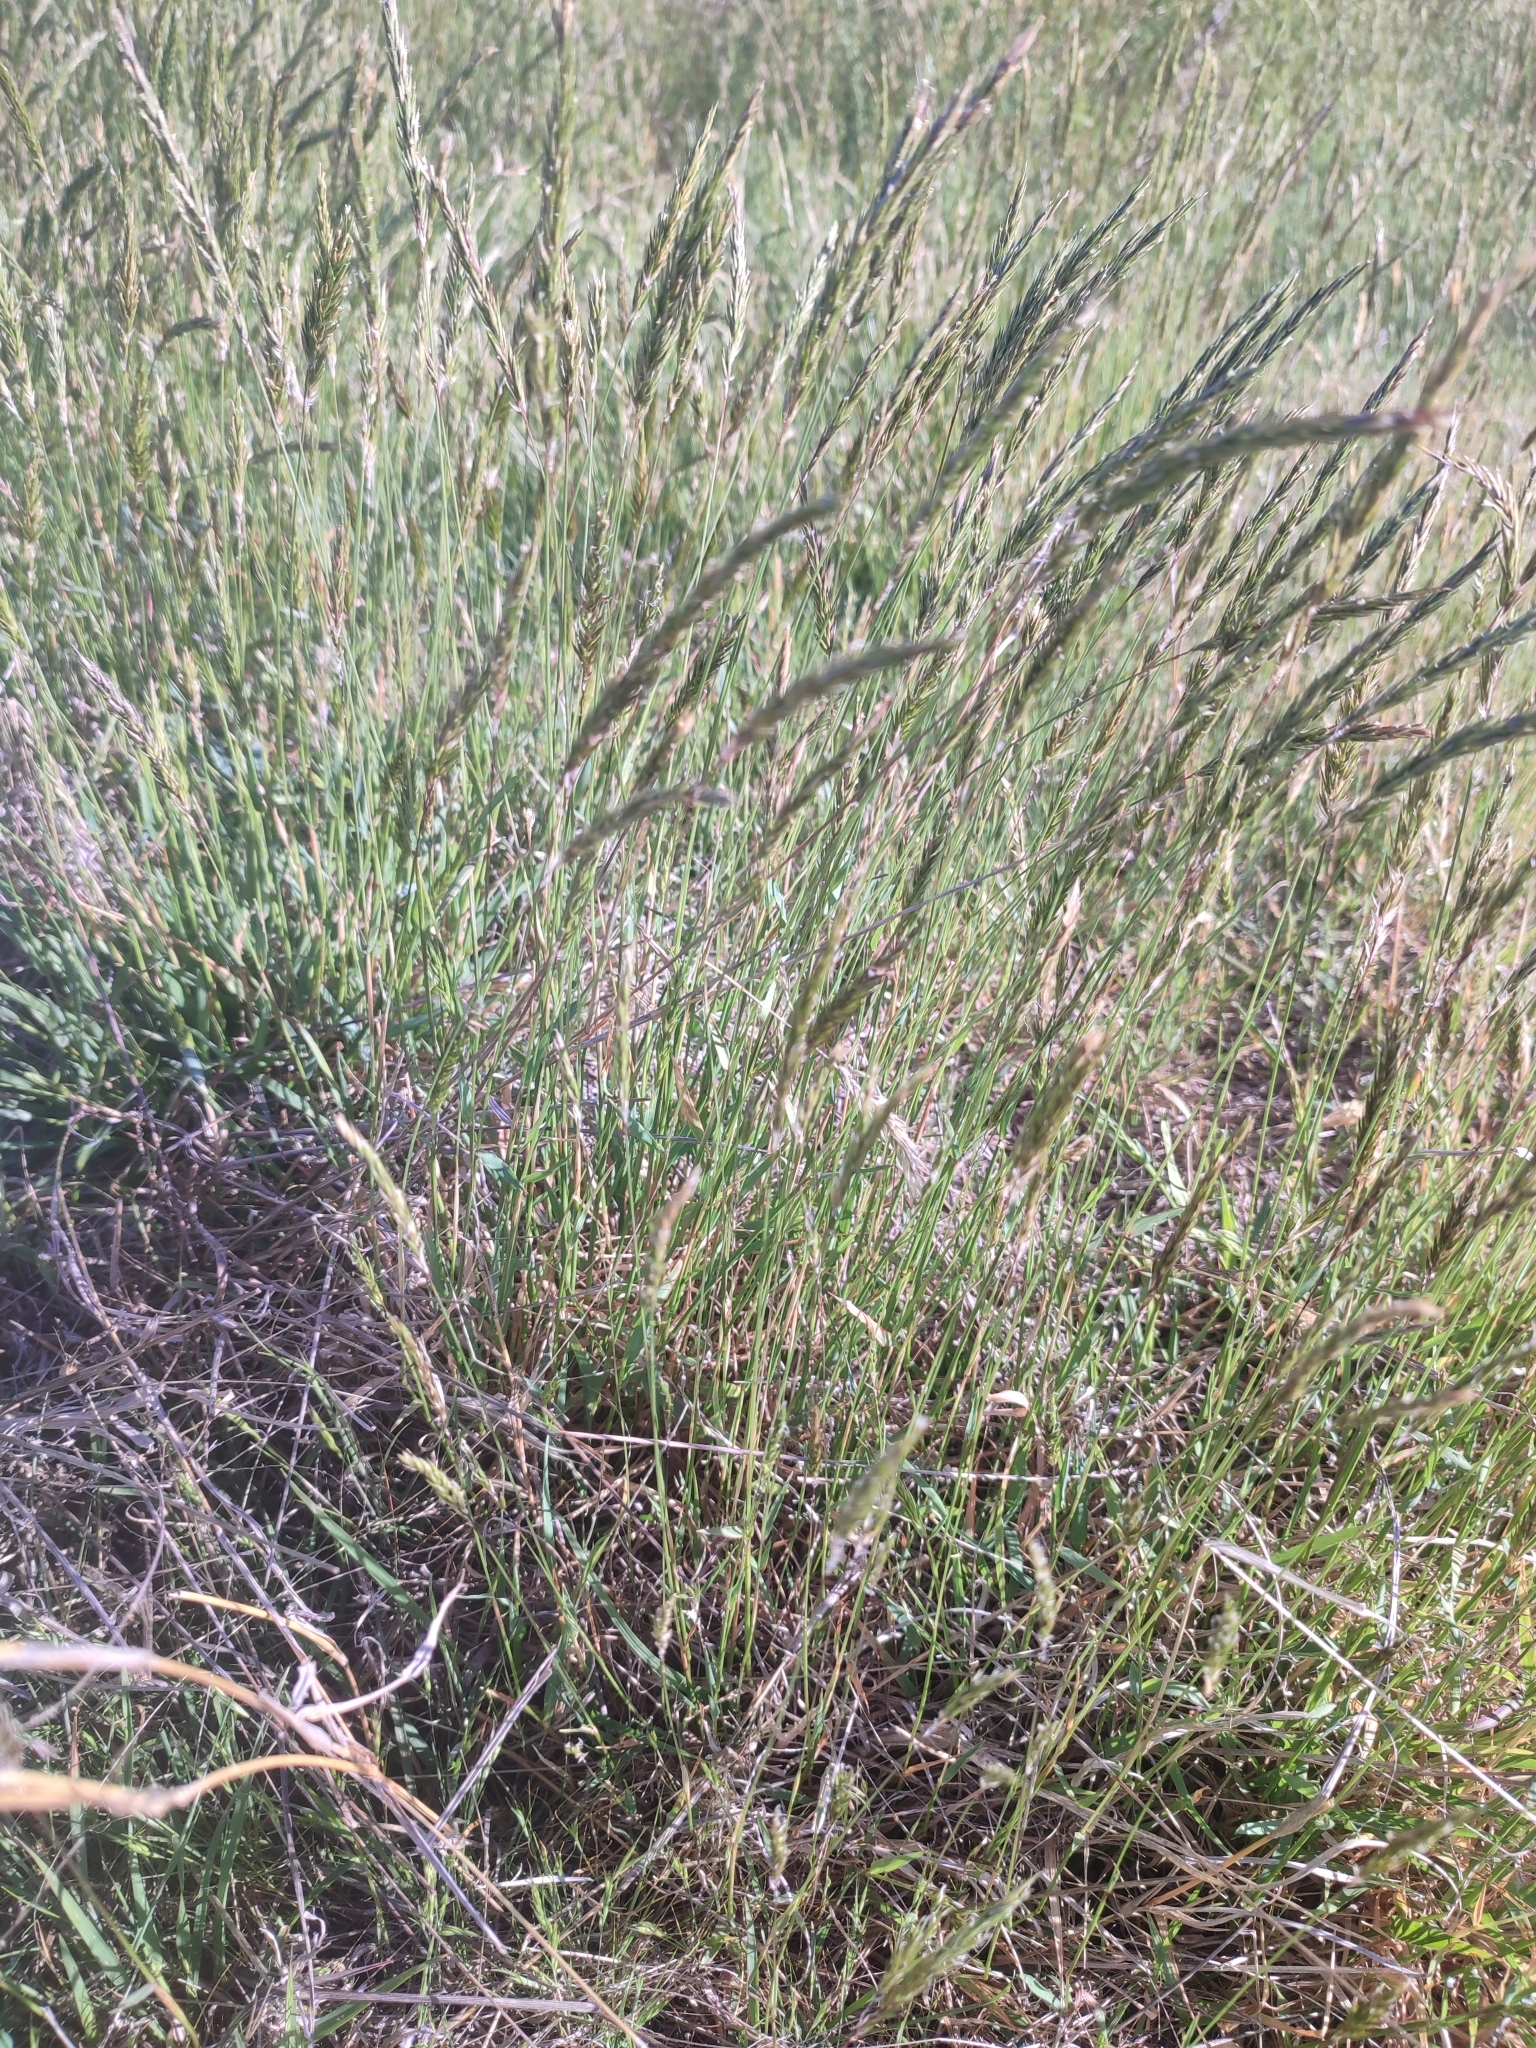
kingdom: Plantae
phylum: Tracheophyta
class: Liliopsida
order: Poales
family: Poaceae
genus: Anthoxanthum
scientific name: Anthoxanthum odoratum
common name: Sweet vernalgrass
